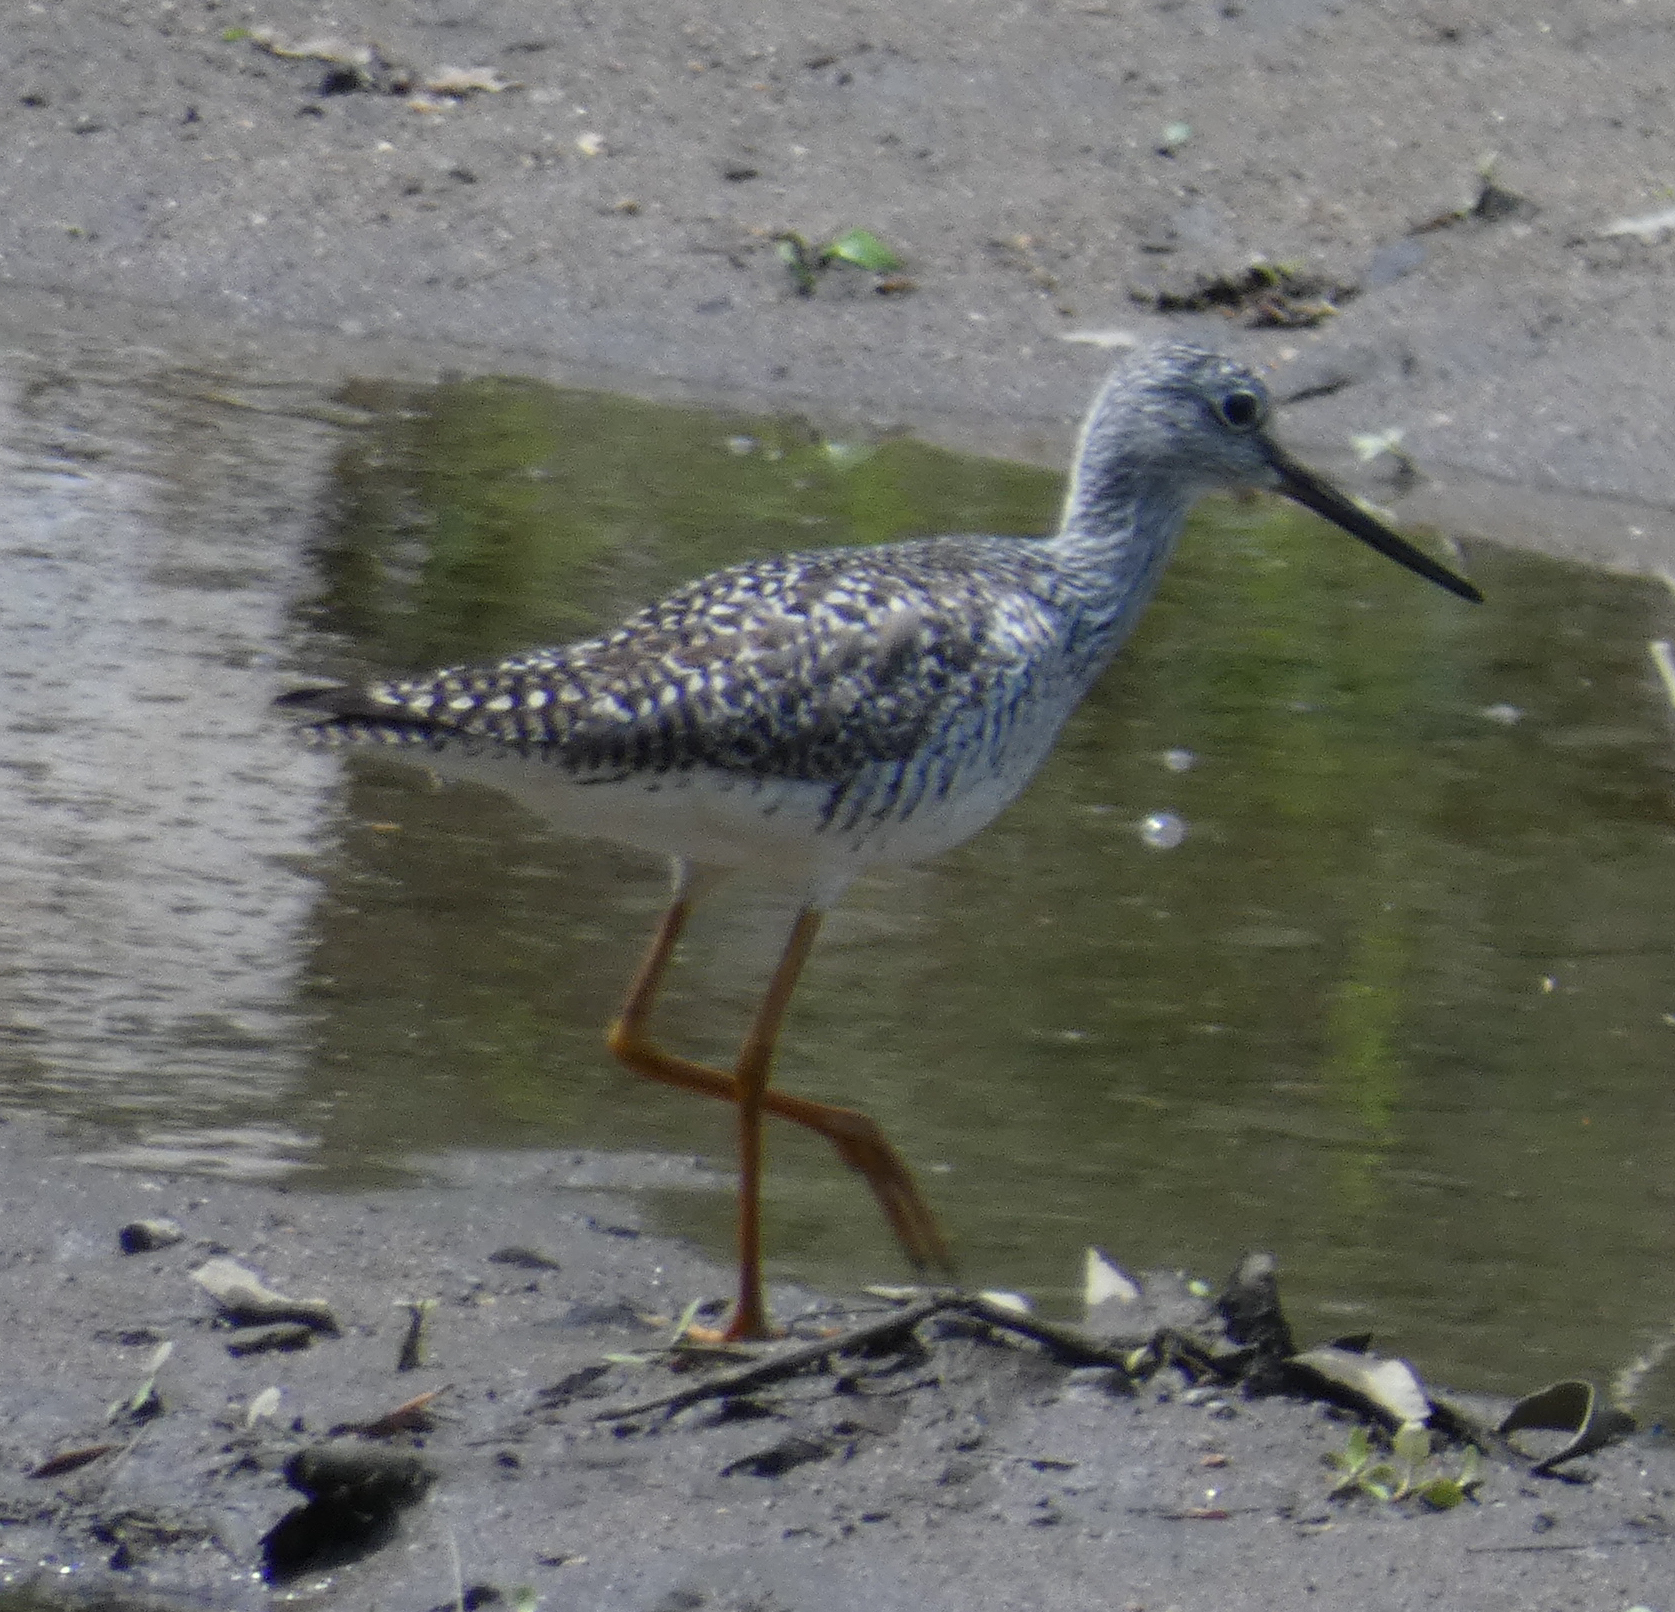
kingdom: Animalia
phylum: Chordata
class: Aves
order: Charadriiformes
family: Scolopacidae
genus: Tringa
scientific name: Tringa melanoleuca
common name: Greater yellowlegs
